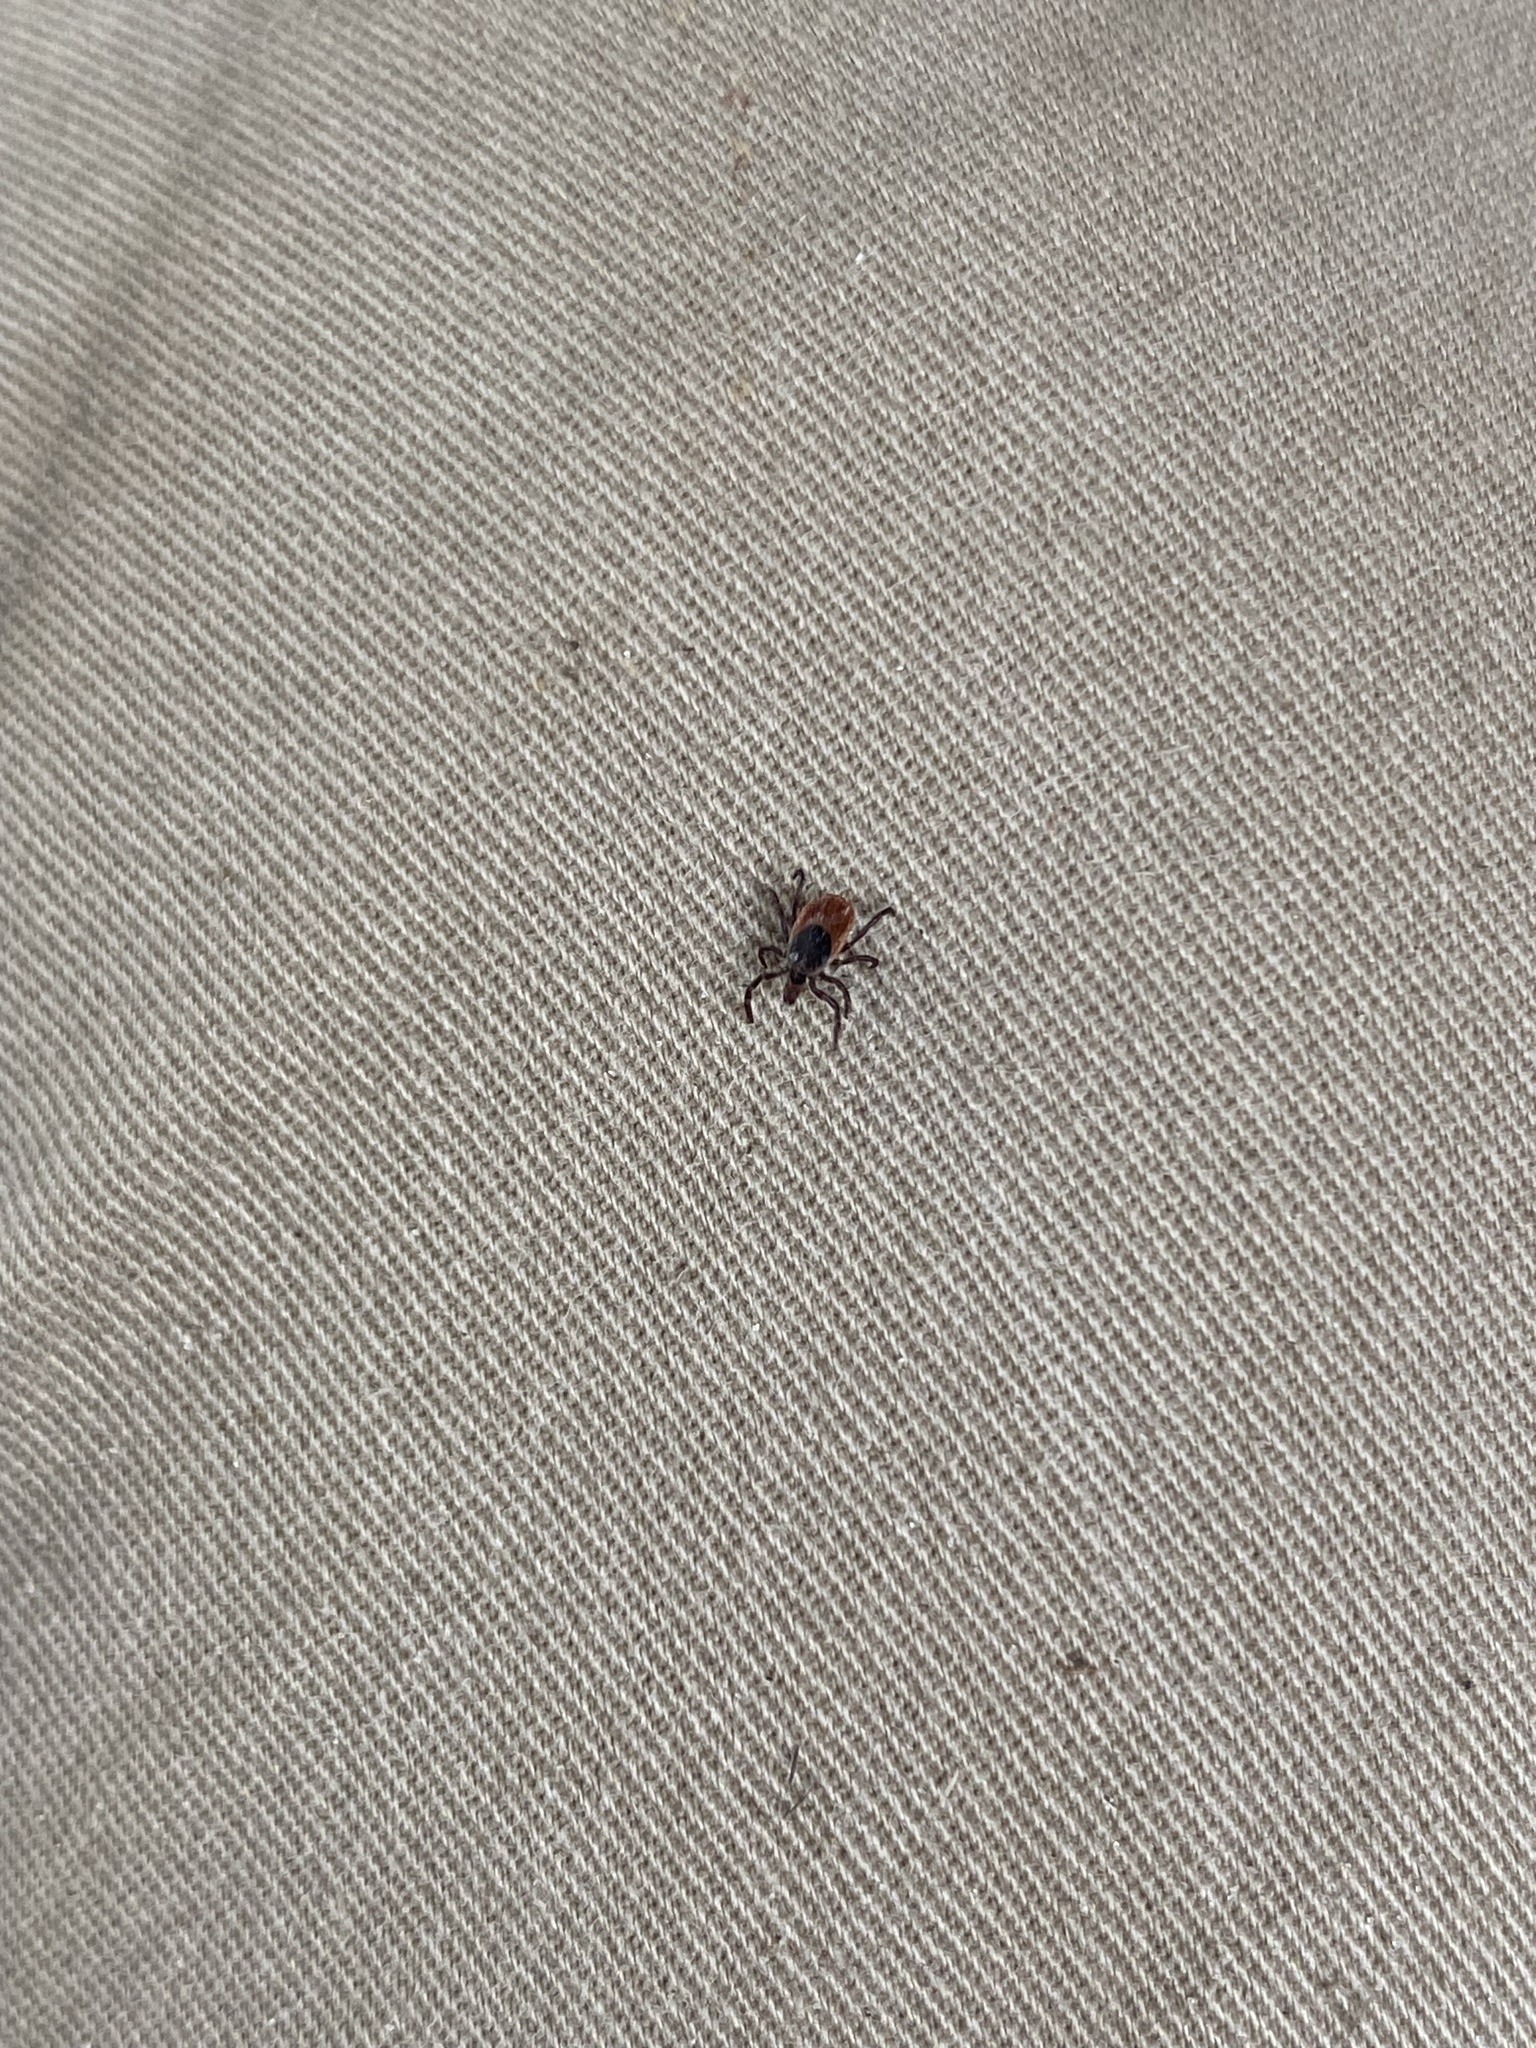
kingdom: Animalia
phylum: Arthropoda
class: Arachnida
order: Ixodida
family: Ixodidae
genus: Ixodes
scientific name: Ixodes scapularis
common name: Black legged tick
